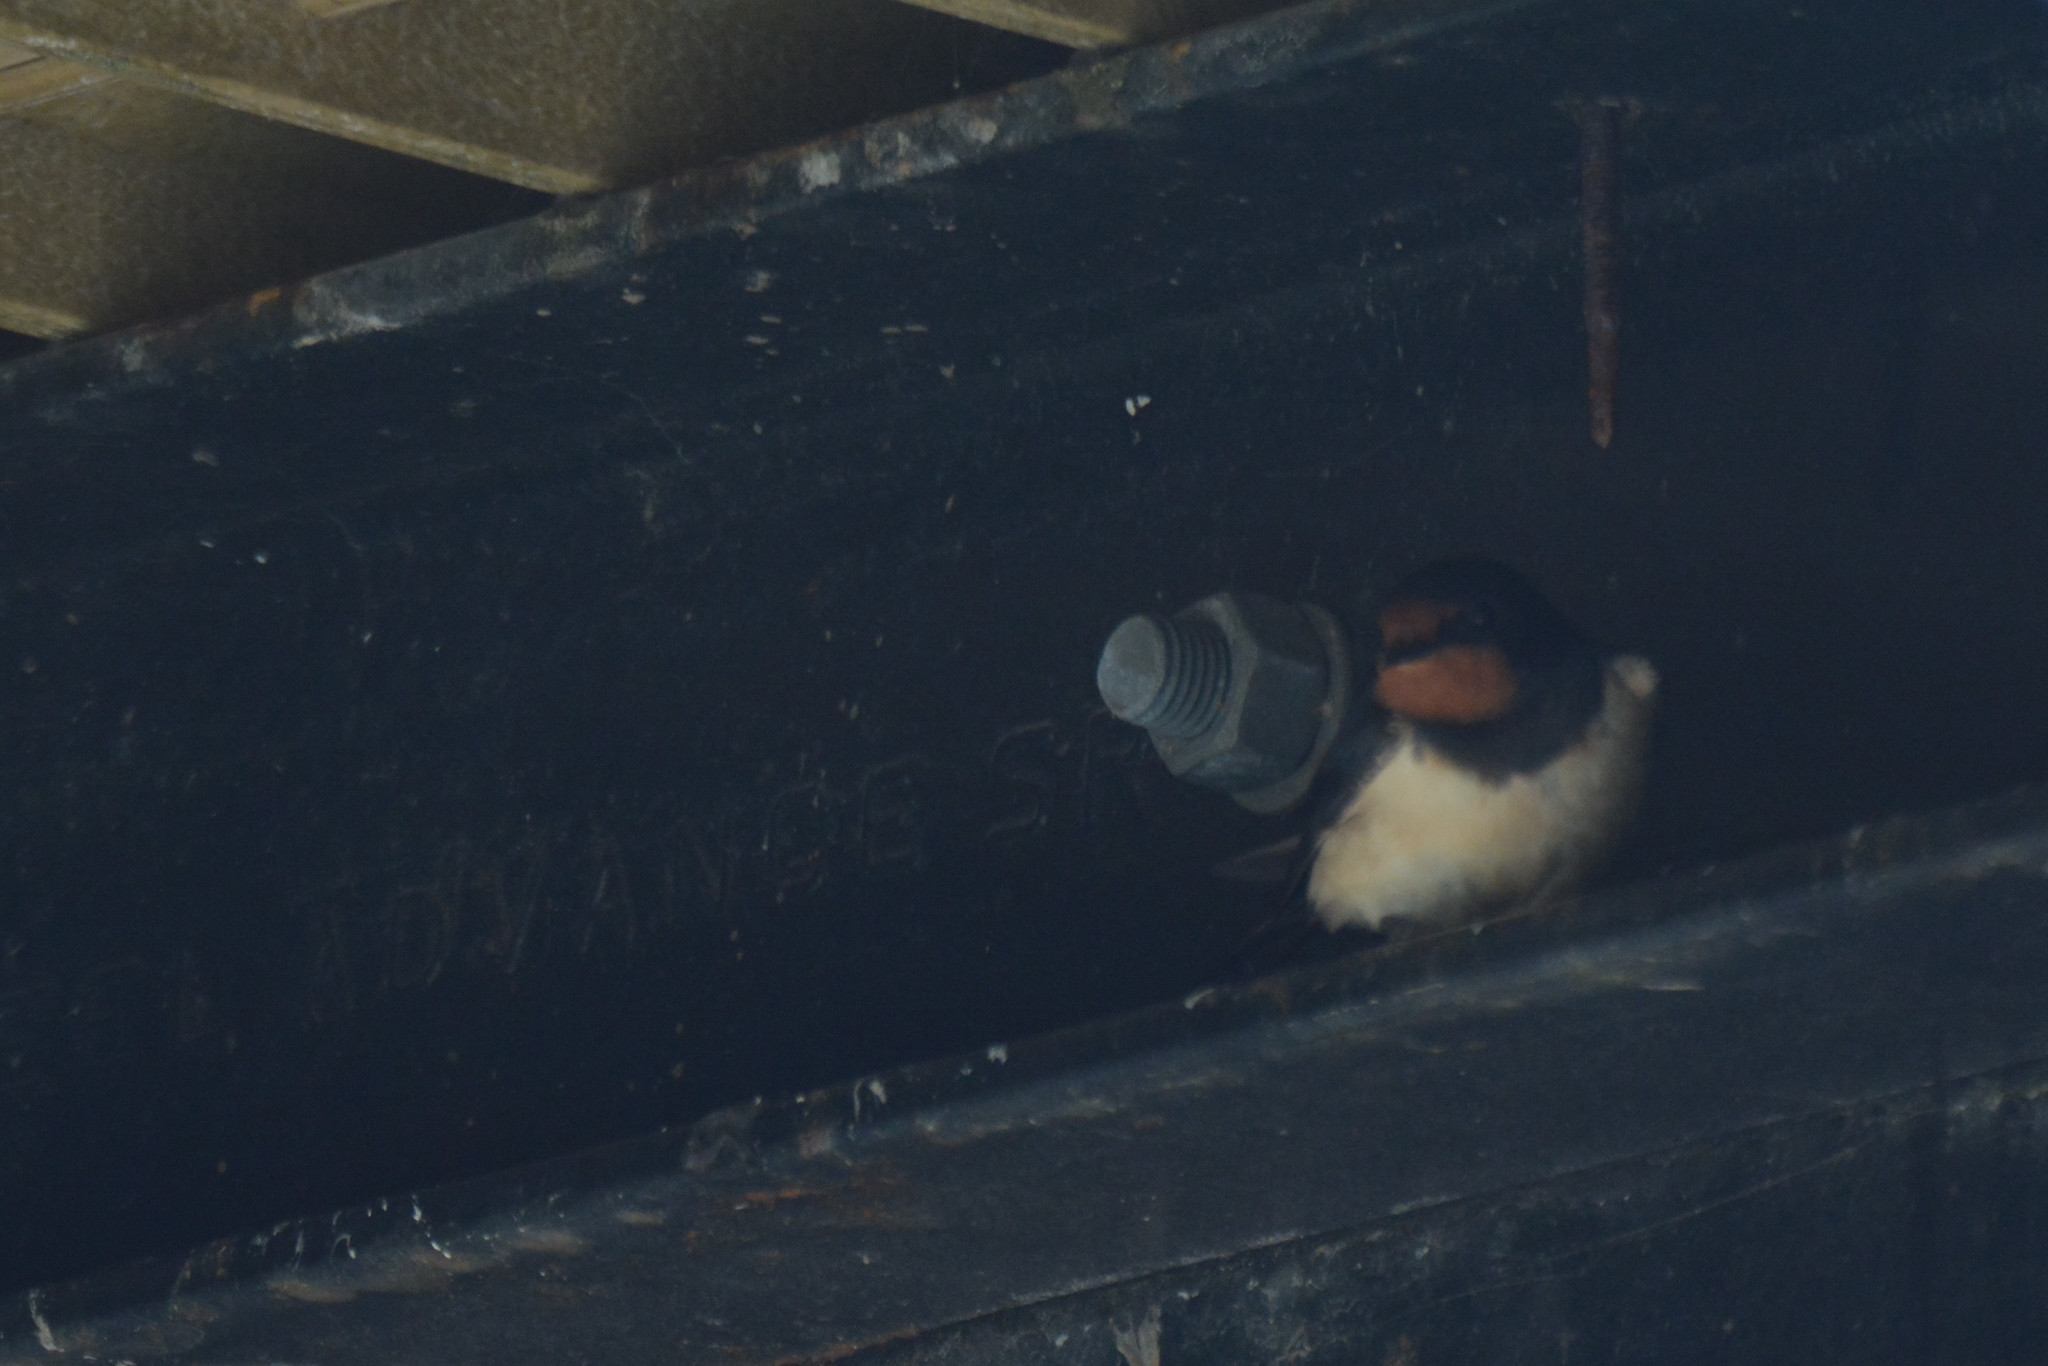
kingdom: Animalia
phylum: Chordata
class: Aves
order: Passeriformes
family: Hirundinidae
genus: Hirundo
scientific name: Hirundo rustica
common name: Barn swallow
